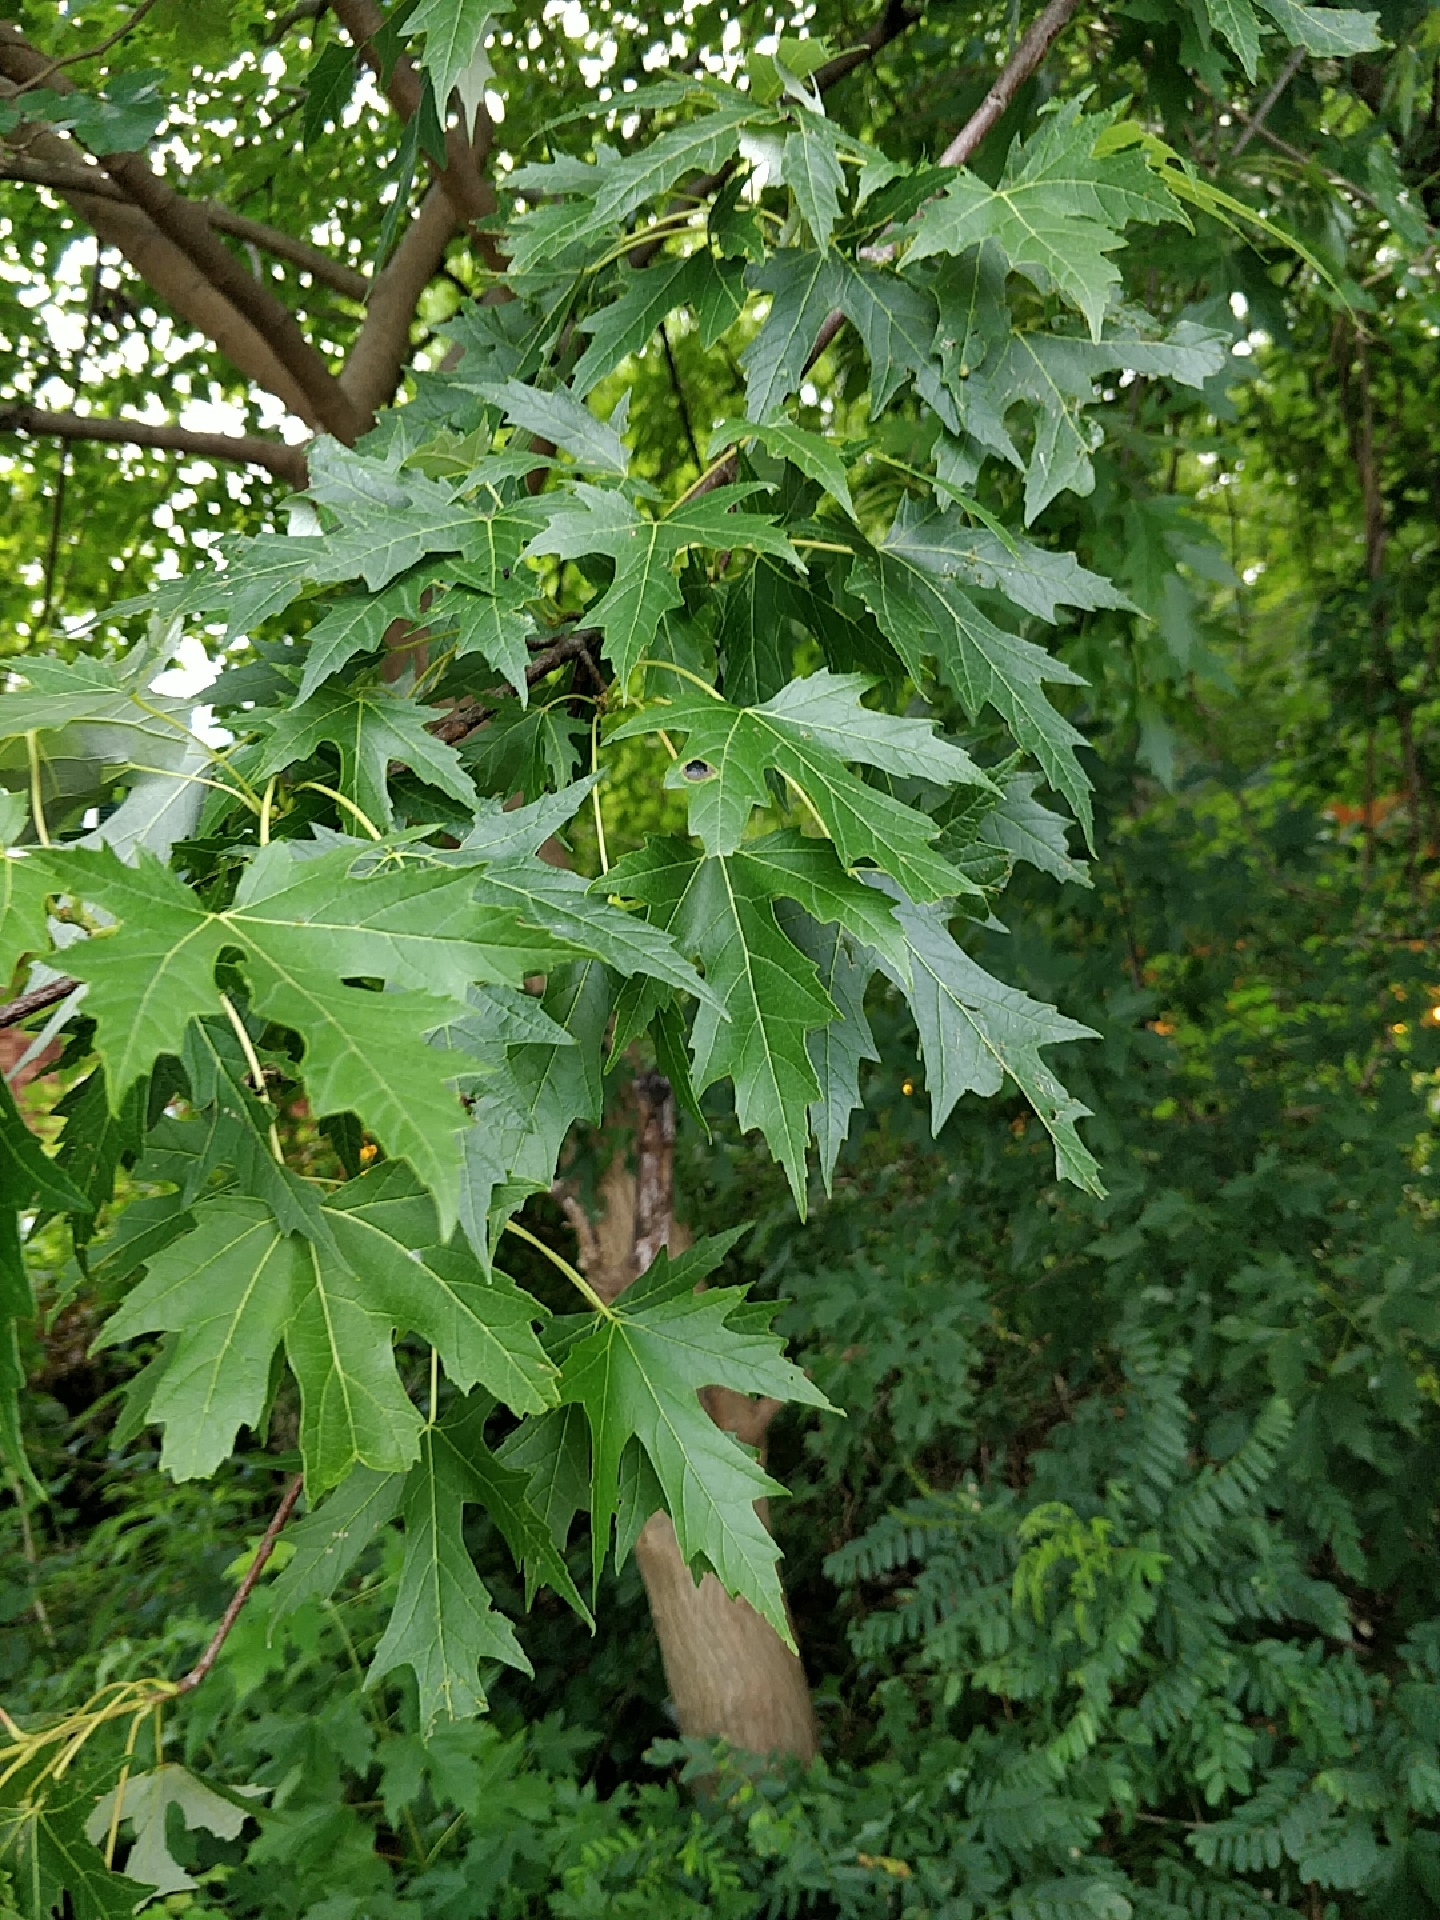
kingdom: Plantae
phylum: Tracheophyta
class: Magnoliopsida
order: Sapindales
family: Sapindaceae
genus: Acer
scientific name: Acer saccharinum
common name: Silver maple
